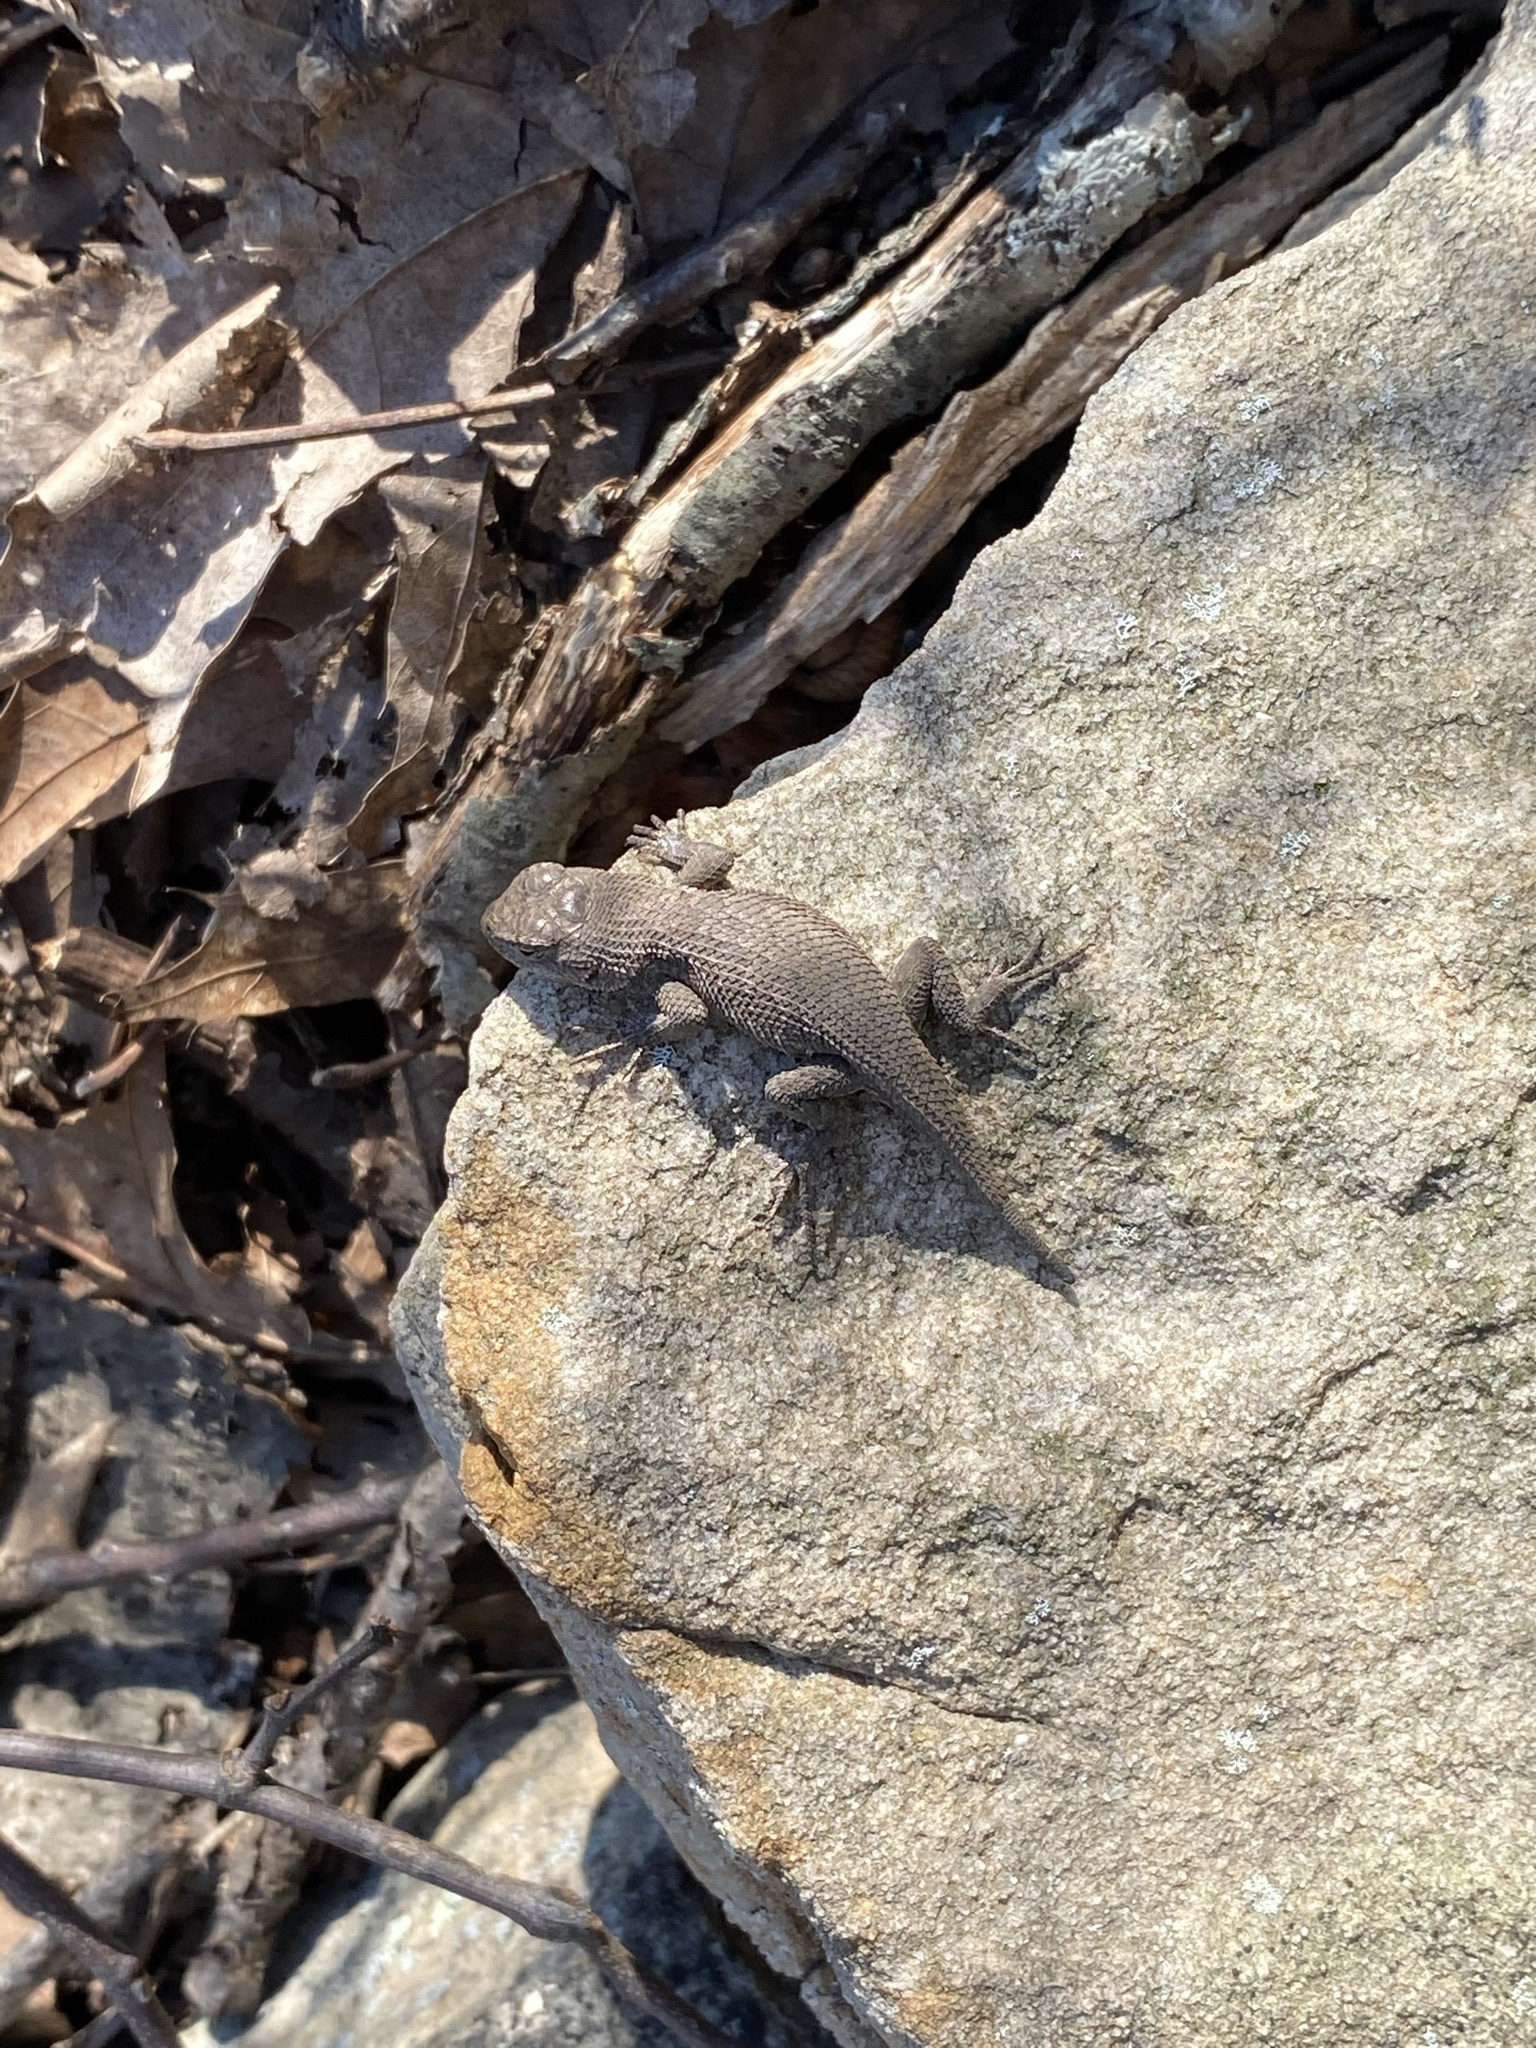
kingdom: Animalia
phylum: Chordata
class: Squamata
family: Phrynosomatidae
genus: Sceloporus
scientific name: Sceloporus consobrinus
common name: Southern prairie lizard
